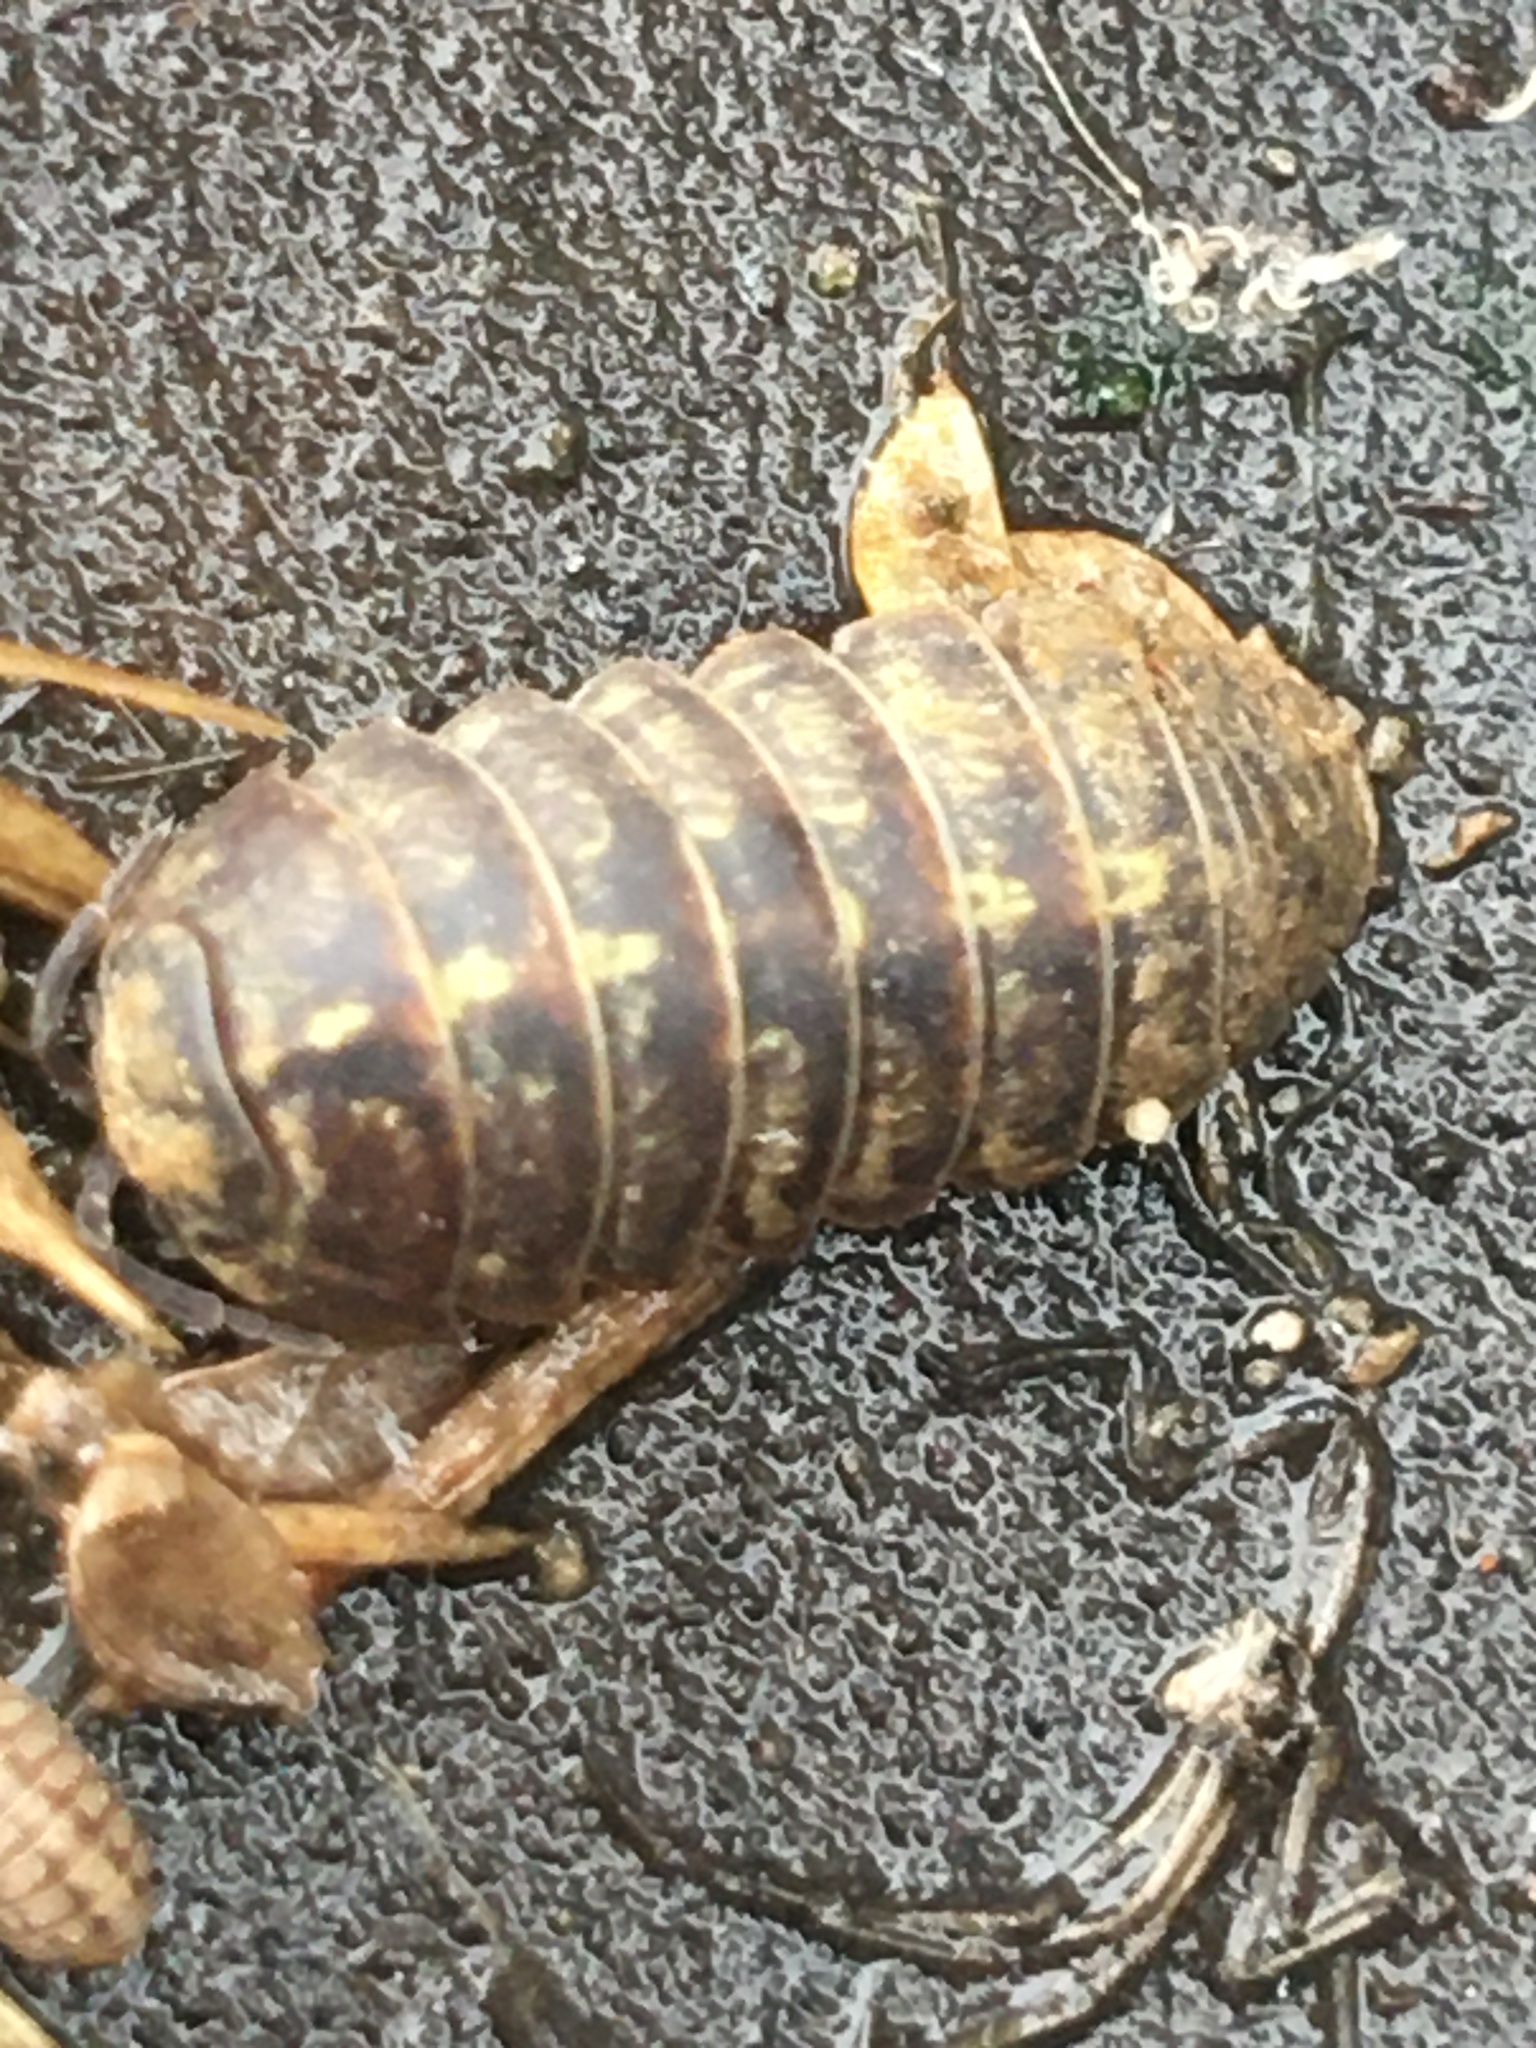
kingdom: Animalia
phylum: Arthropoda
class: Malacostraca
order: Isopoda
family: Armadillidiidae
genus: Armadillidium
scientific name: Armadillidium vulgare
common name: Common pill woodlouse
